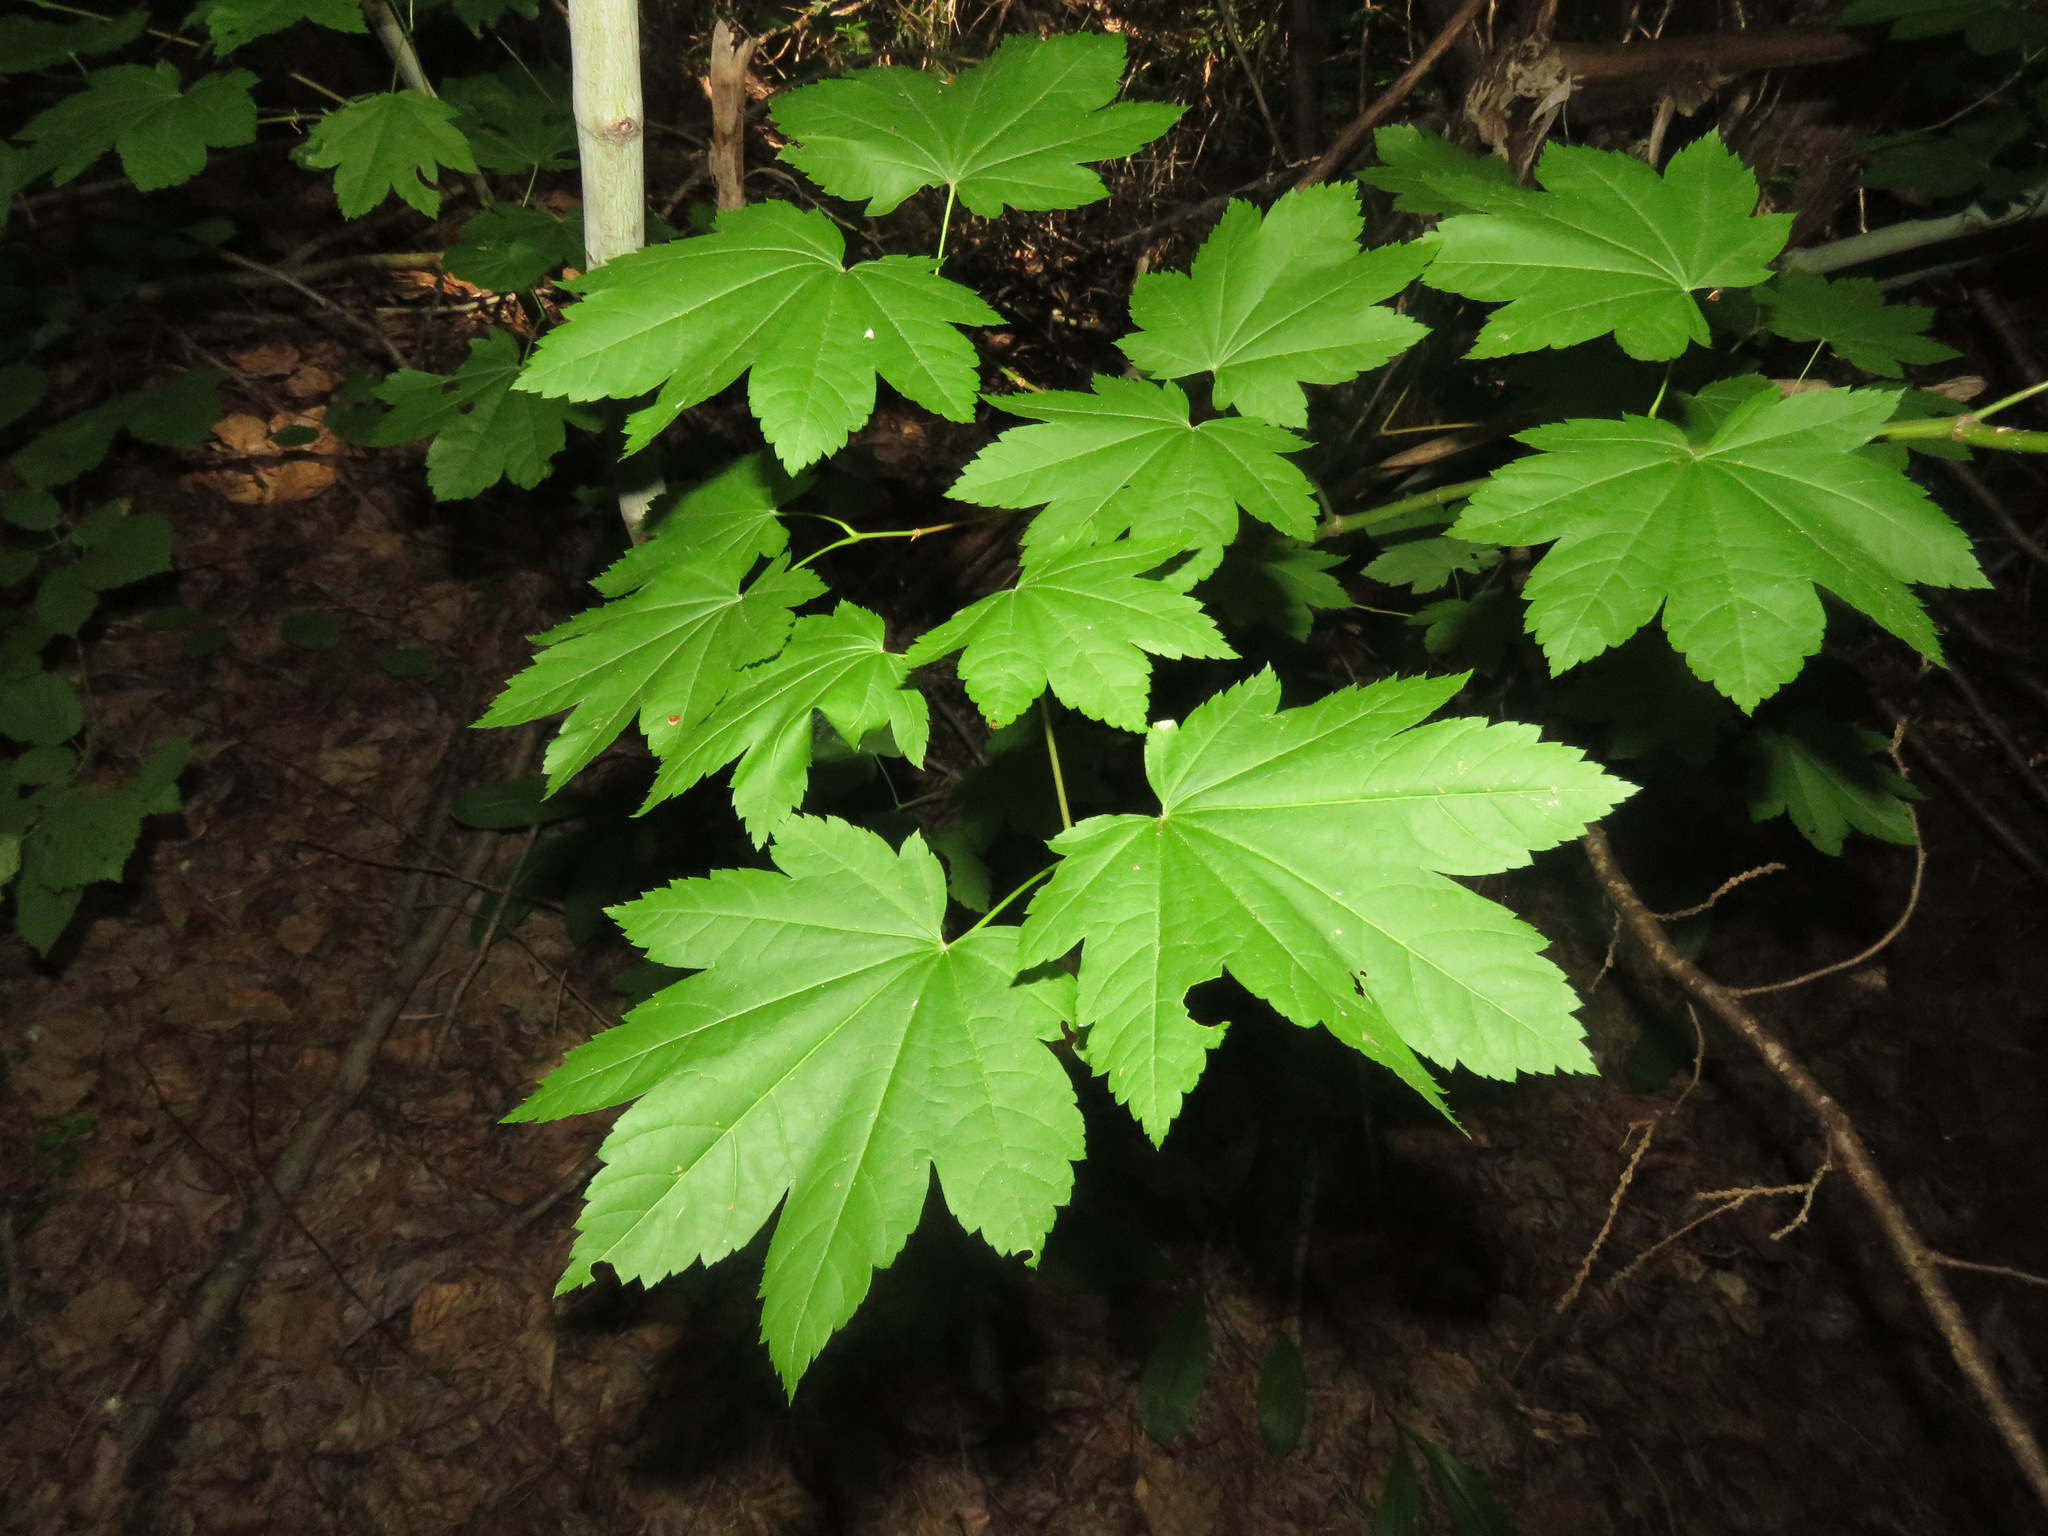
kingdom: Plantae
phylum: Tracheophyta
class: Magnoliopsida
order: Sapindales
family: Sapindaceae
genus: Acer
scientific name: Acer circinatum
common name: Vine maple
